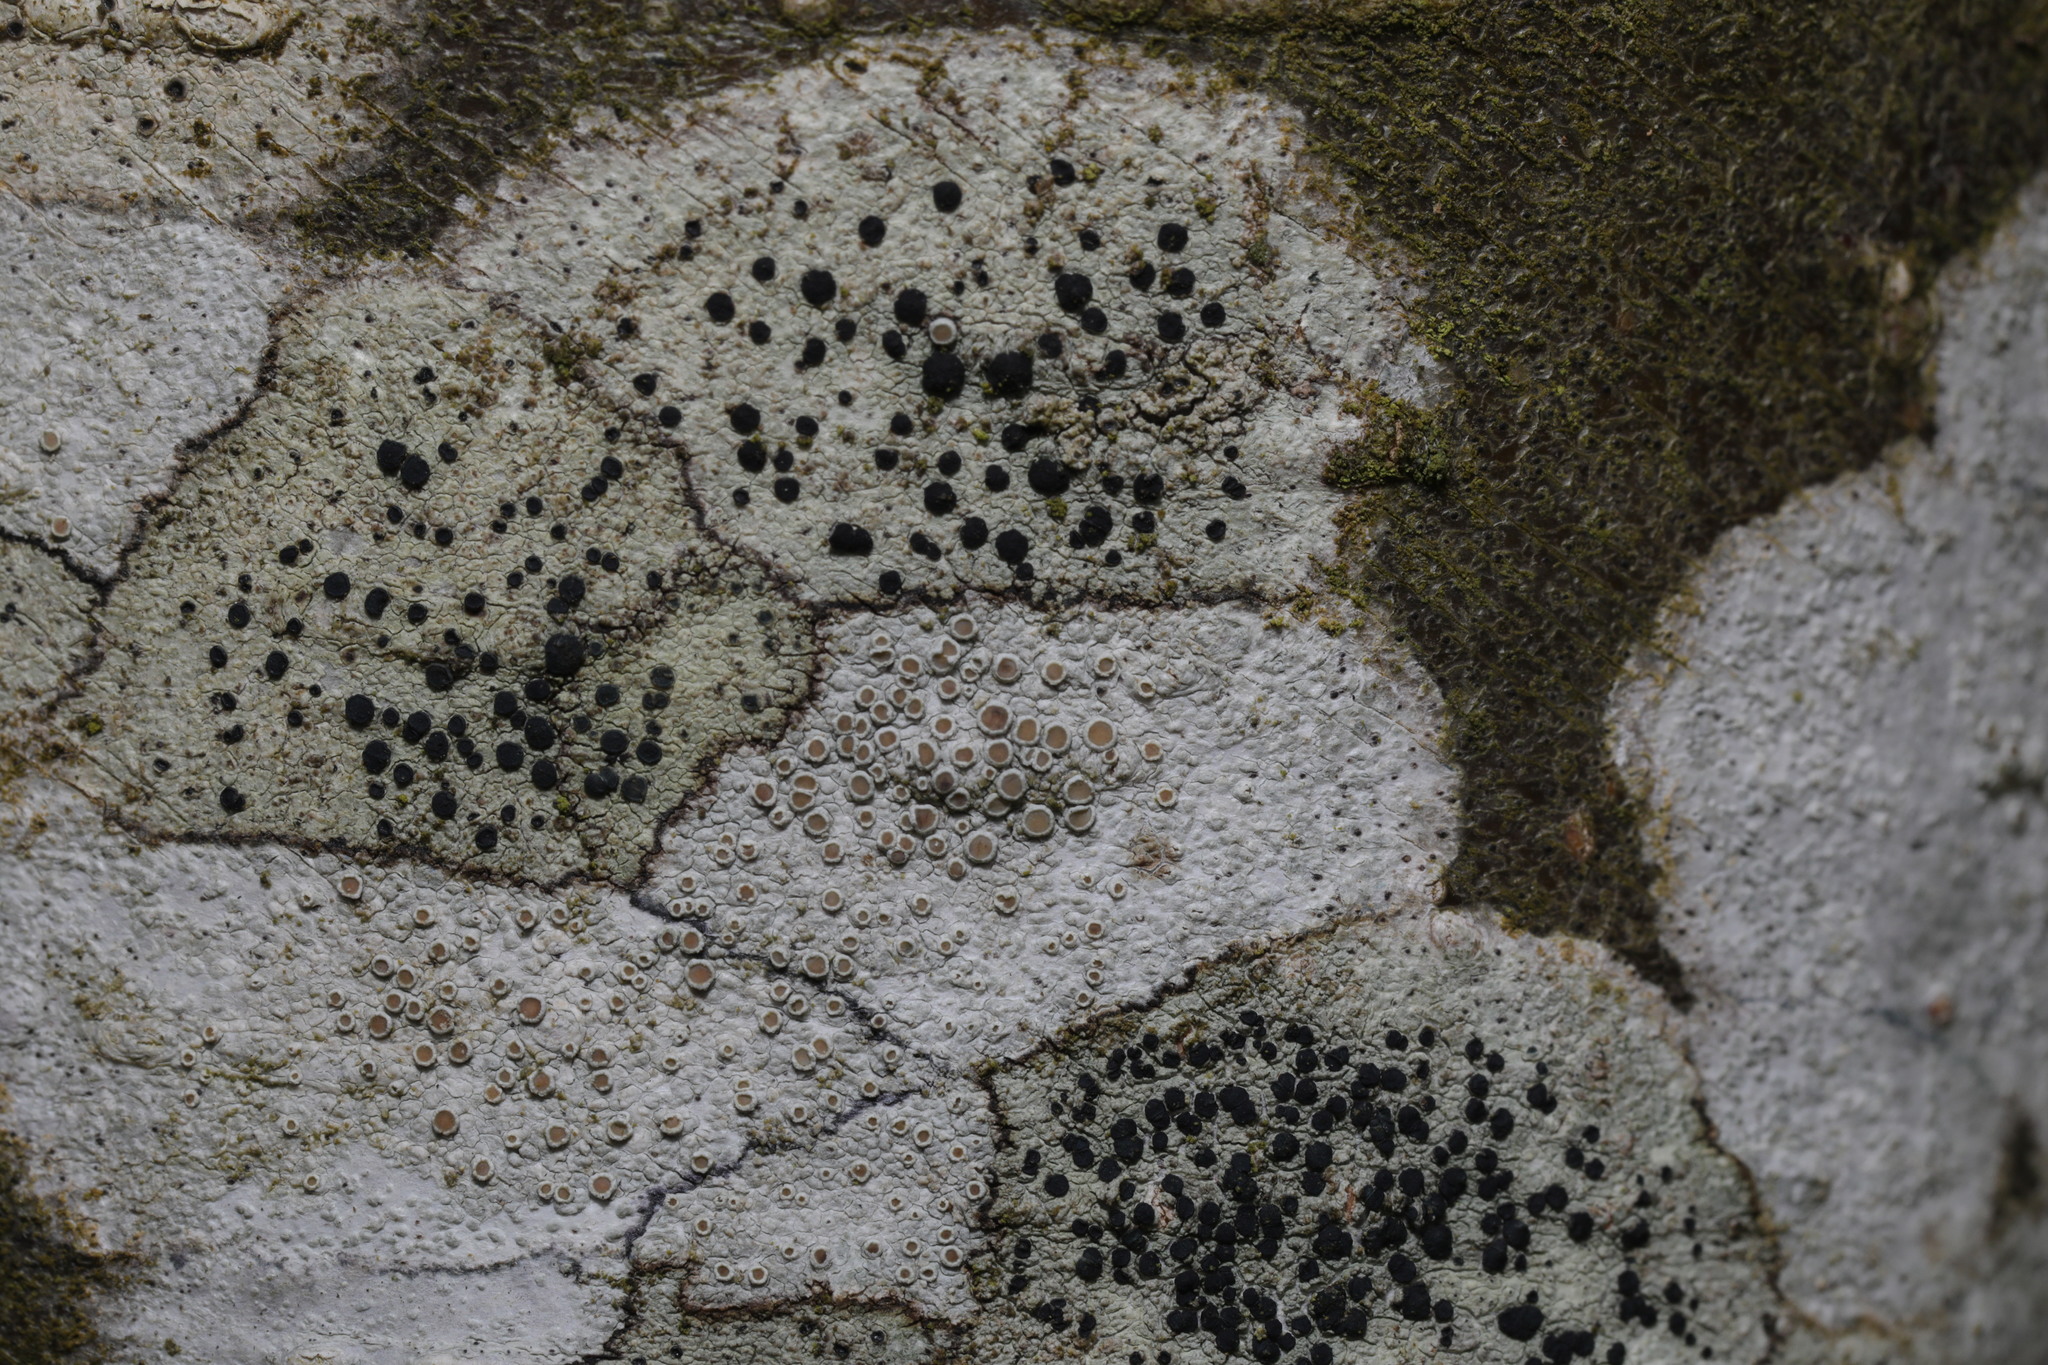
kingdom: Fungi
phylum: Ascomycota
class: Lecanoromycetes
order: Lecanorales
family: Lecanoraceae
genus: Lecidella
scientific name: Lecidella elaeochroma
